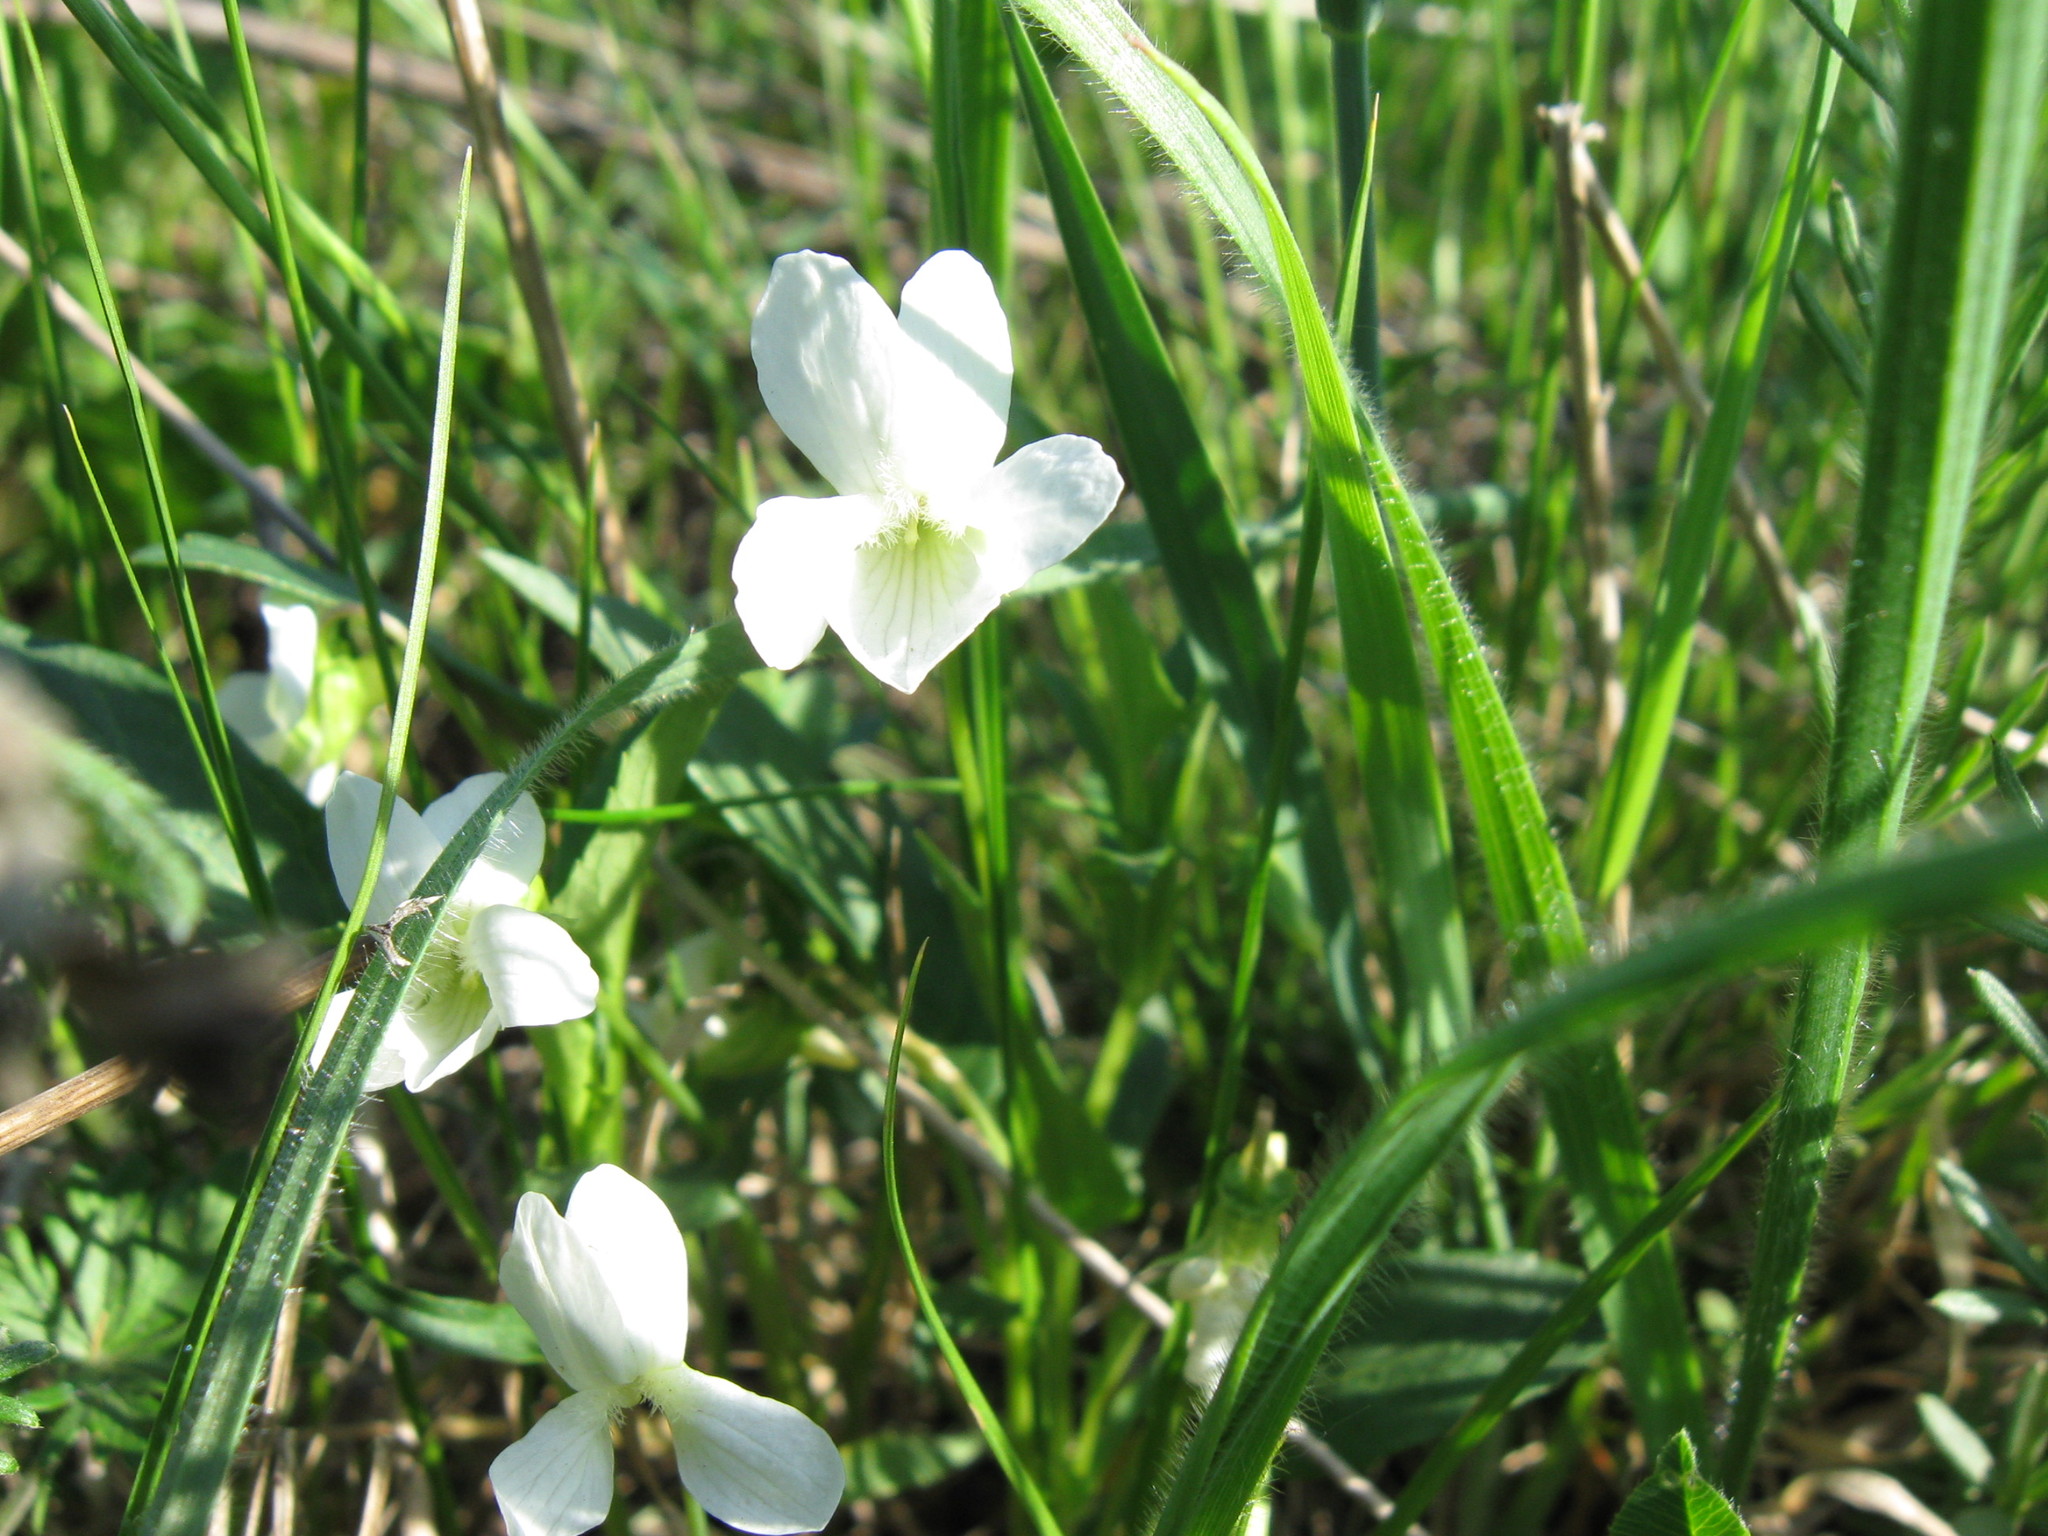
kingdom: Plantae
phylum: Tracheophyta
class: Magnoliopsida
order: Malpighiales
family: Violaceae
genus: Viola
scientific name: Viola stagnina
